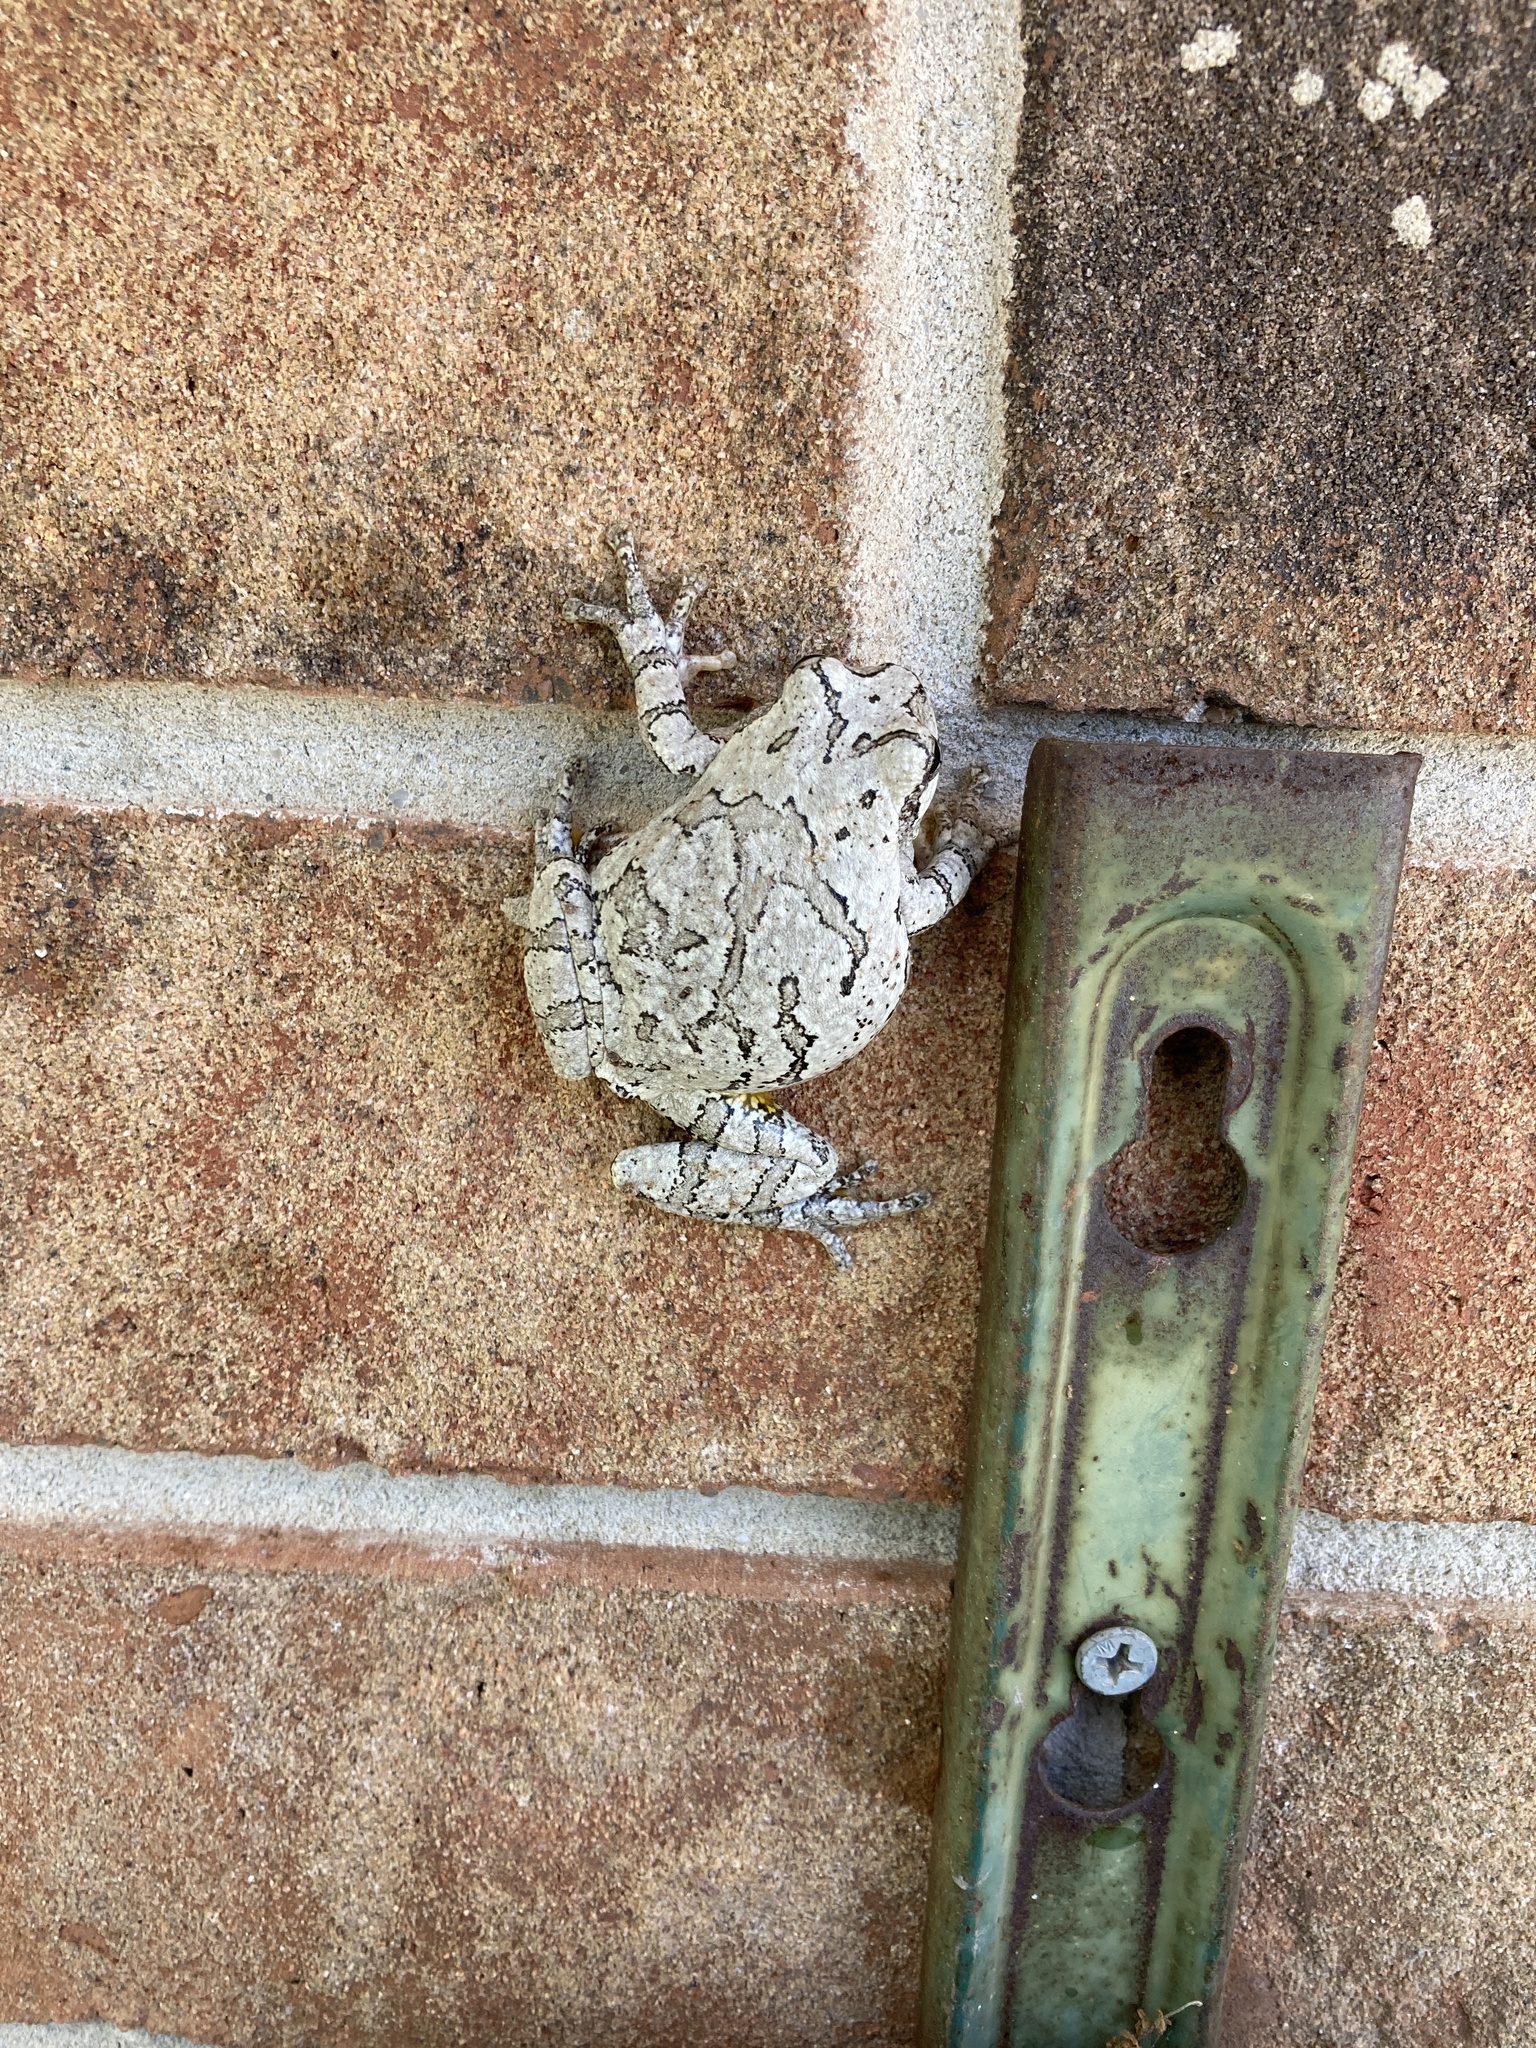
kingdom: Animalia
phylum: Chordata
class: Amphibia
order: Anura
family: Hylidae
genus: Dryophytes
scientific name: Dryophytes chrysoscelis
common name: Cope's gray treefrog
